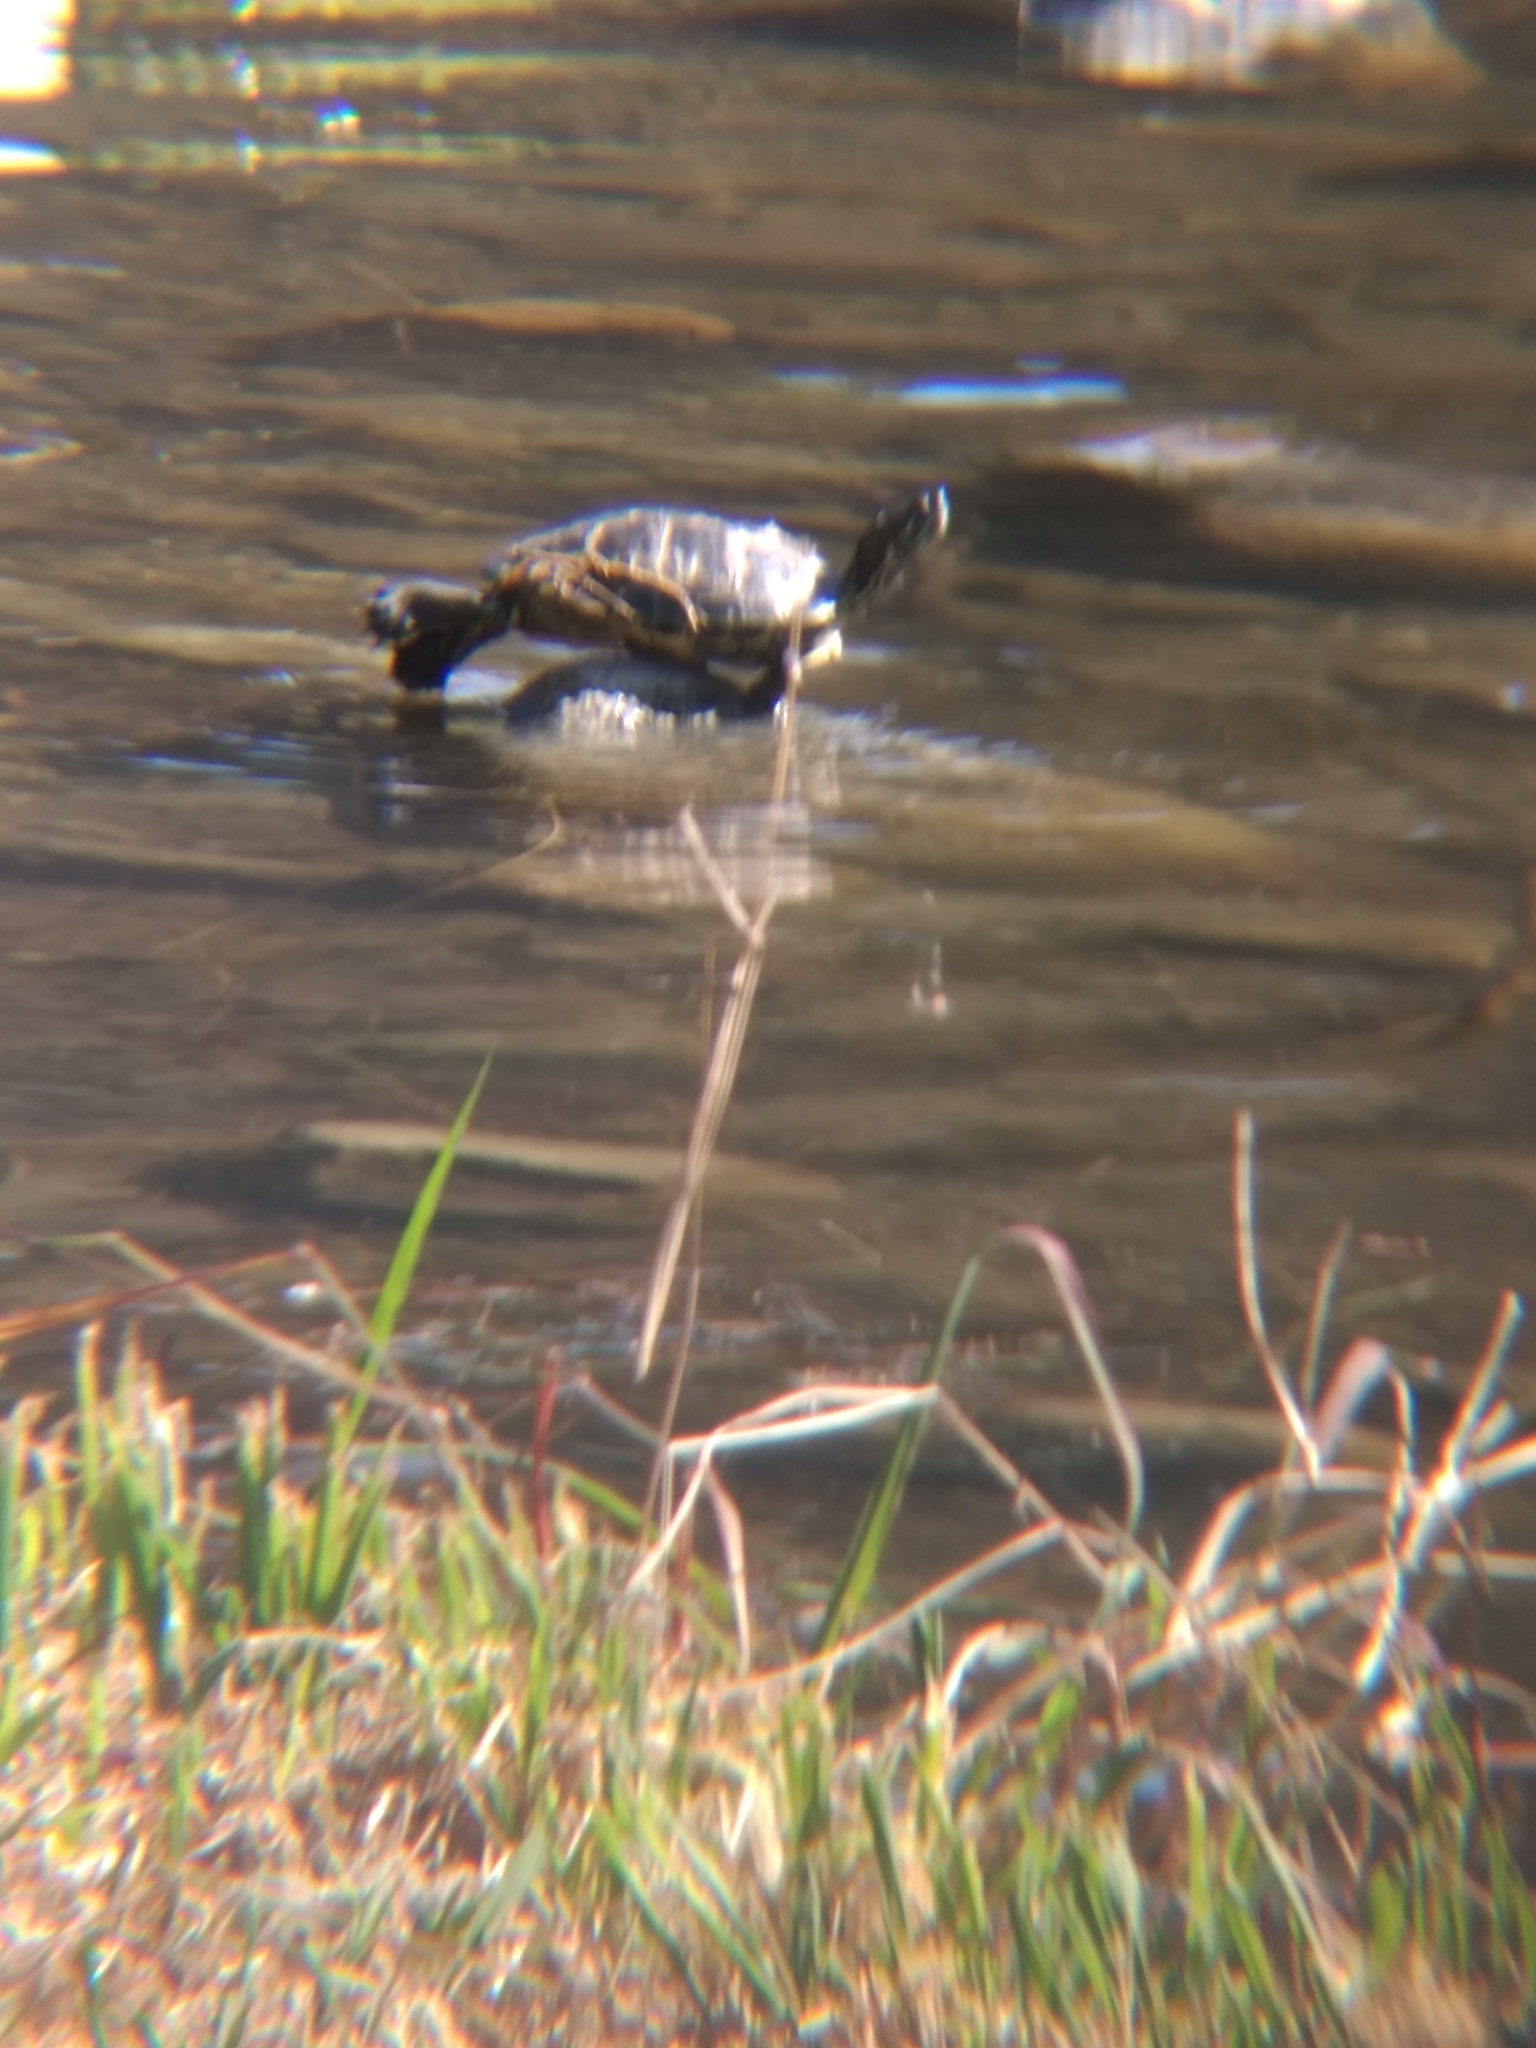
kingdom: Animalia
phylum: Chordata
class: Testudines
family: Emydidae
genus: Trachemys
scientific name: Trachemys scripta
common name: Slider
